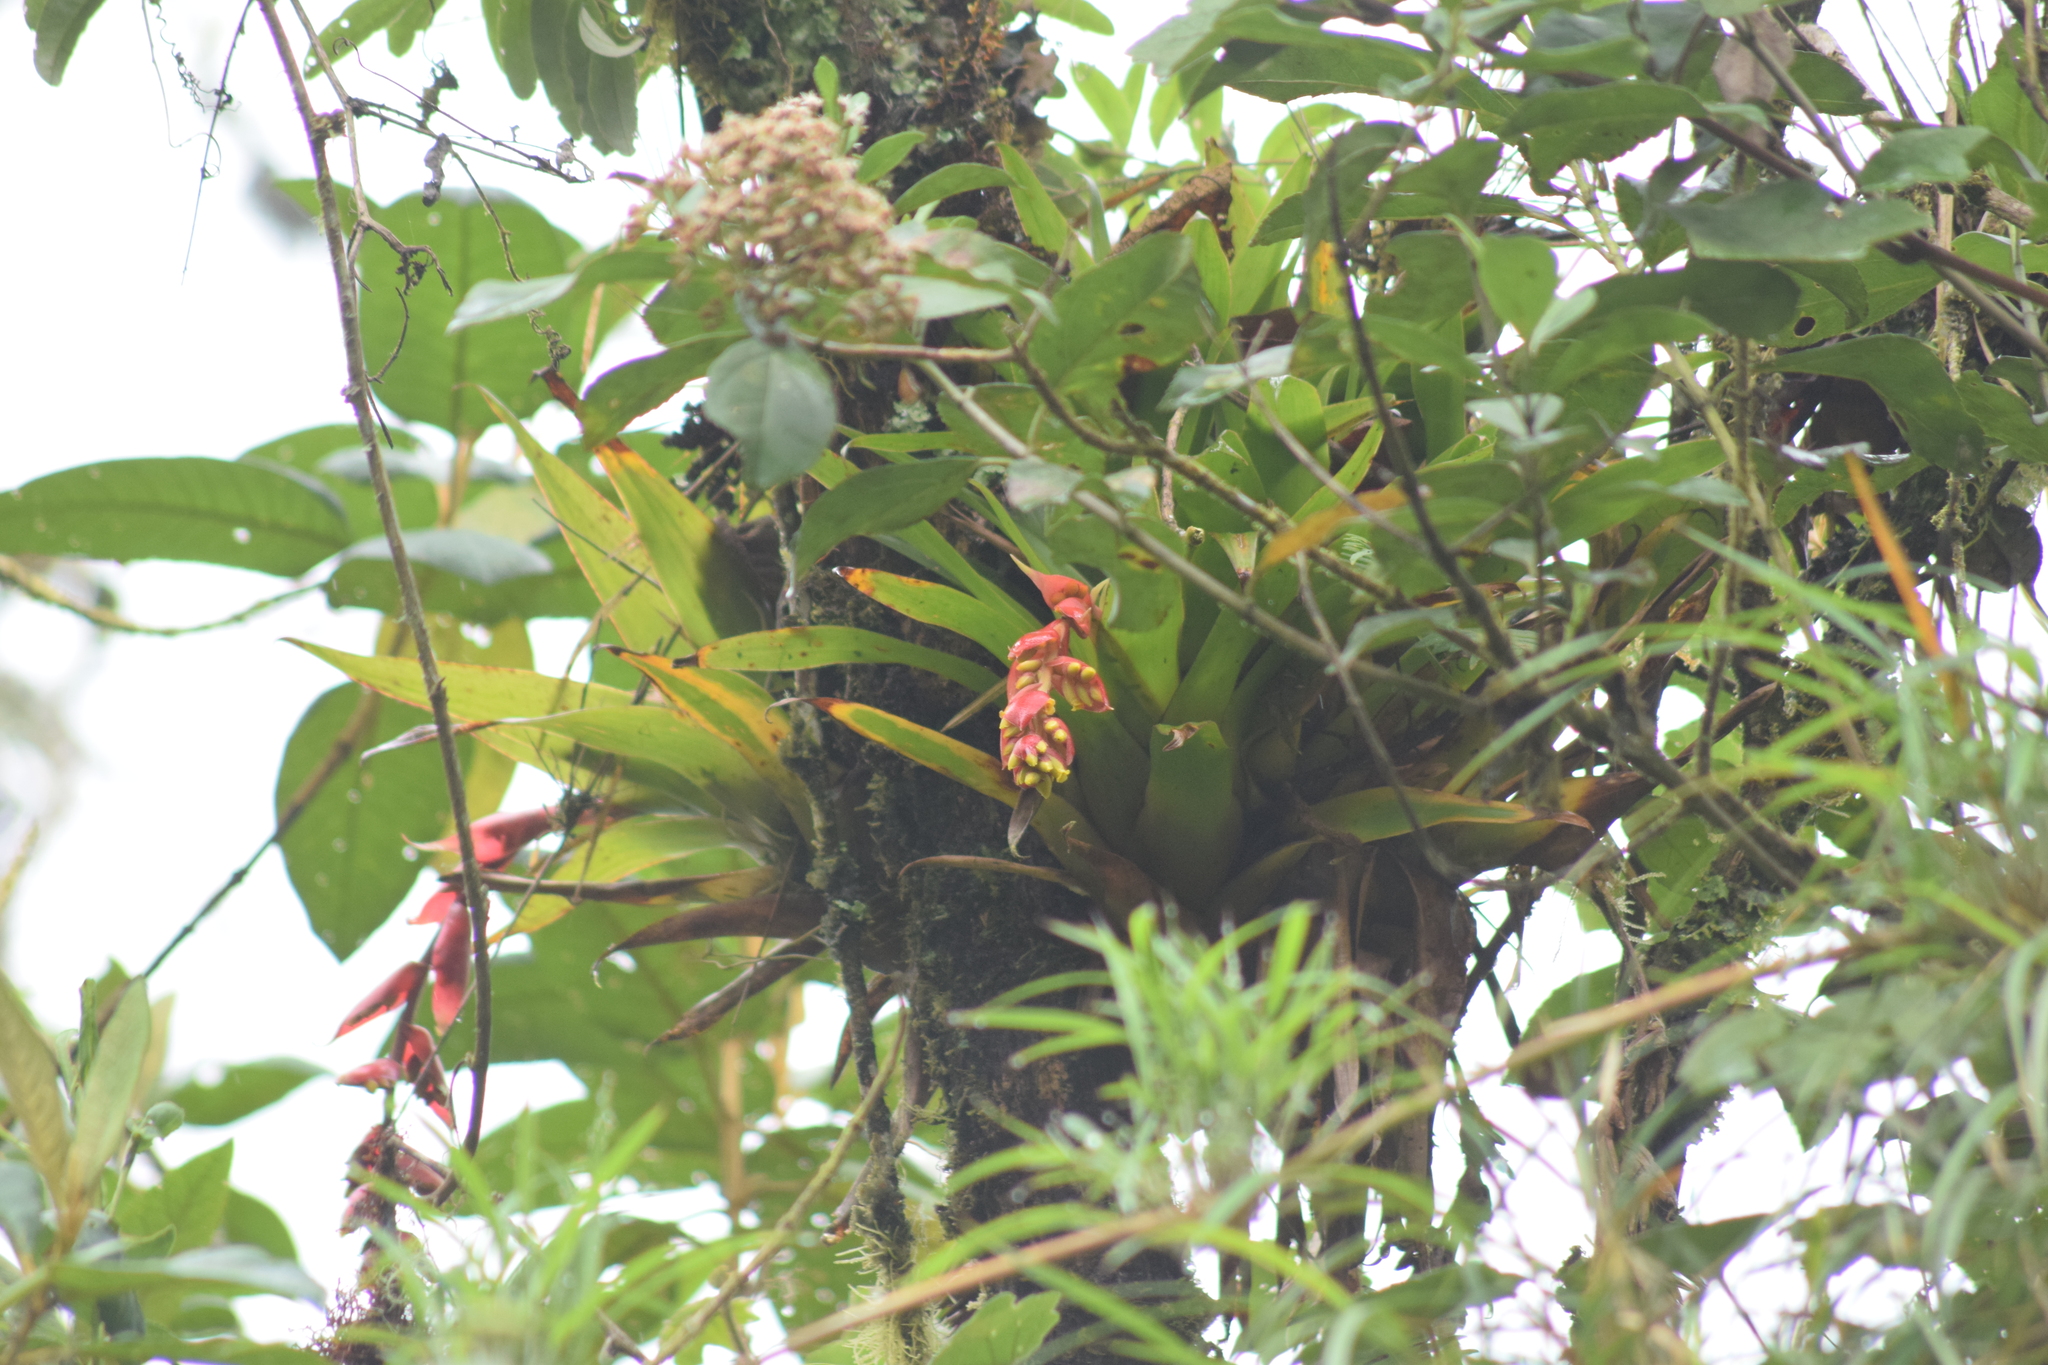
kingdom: Plantae
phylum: Tracheophyta
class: Liliopsida
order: Poales
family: Bromeliaceae
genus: Racinaea
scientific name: Racinaea tetrantha
